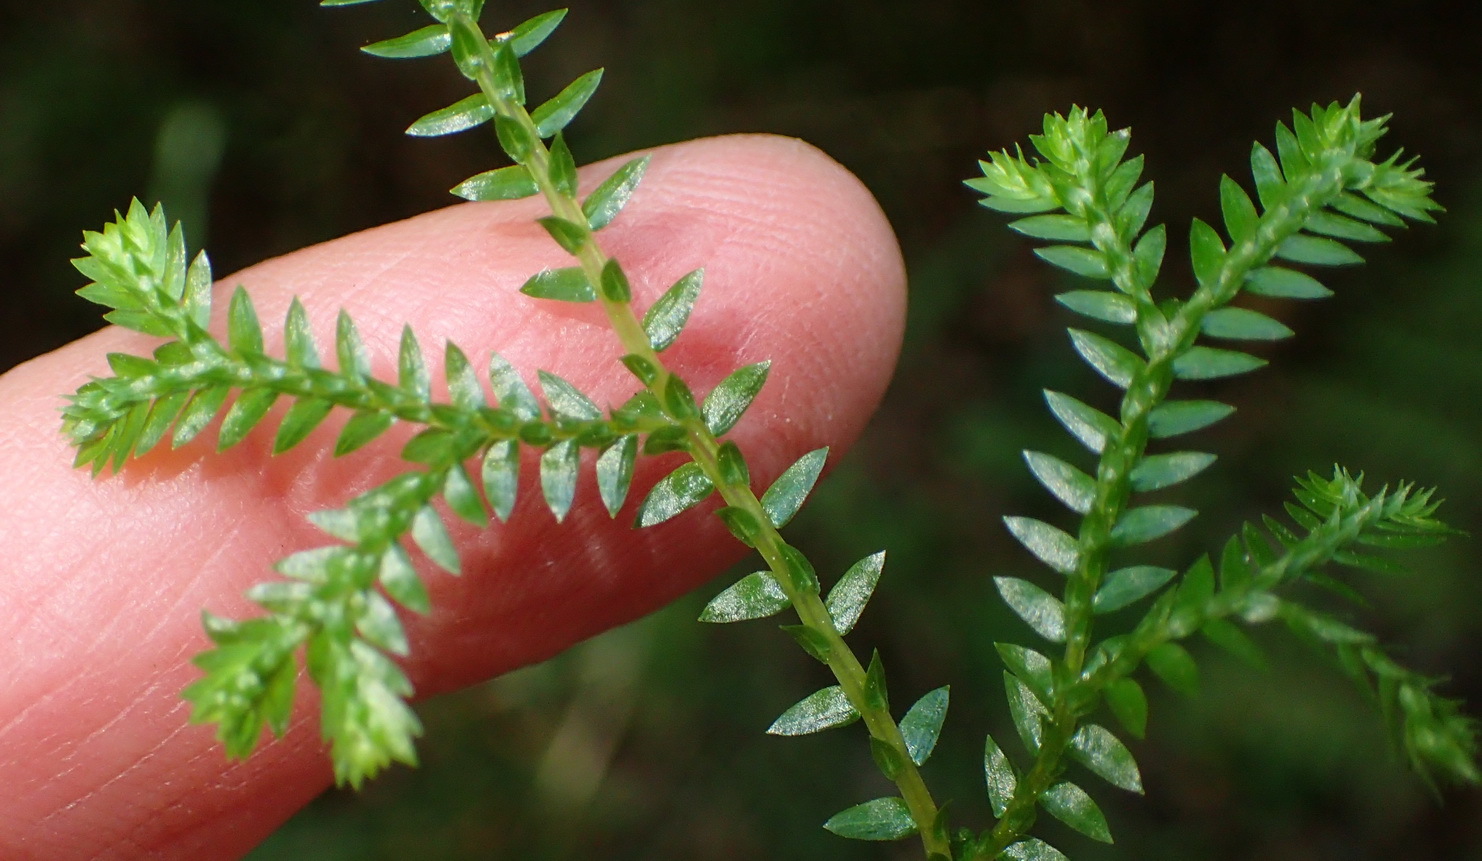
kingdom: Plantae
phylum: Tracheophyta
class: Lycopodiopsida
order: Selaginellales
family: Selaginellaceae
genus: Selaginella
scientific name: Selaginella kraussiana
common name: Krauss' spikemoss
